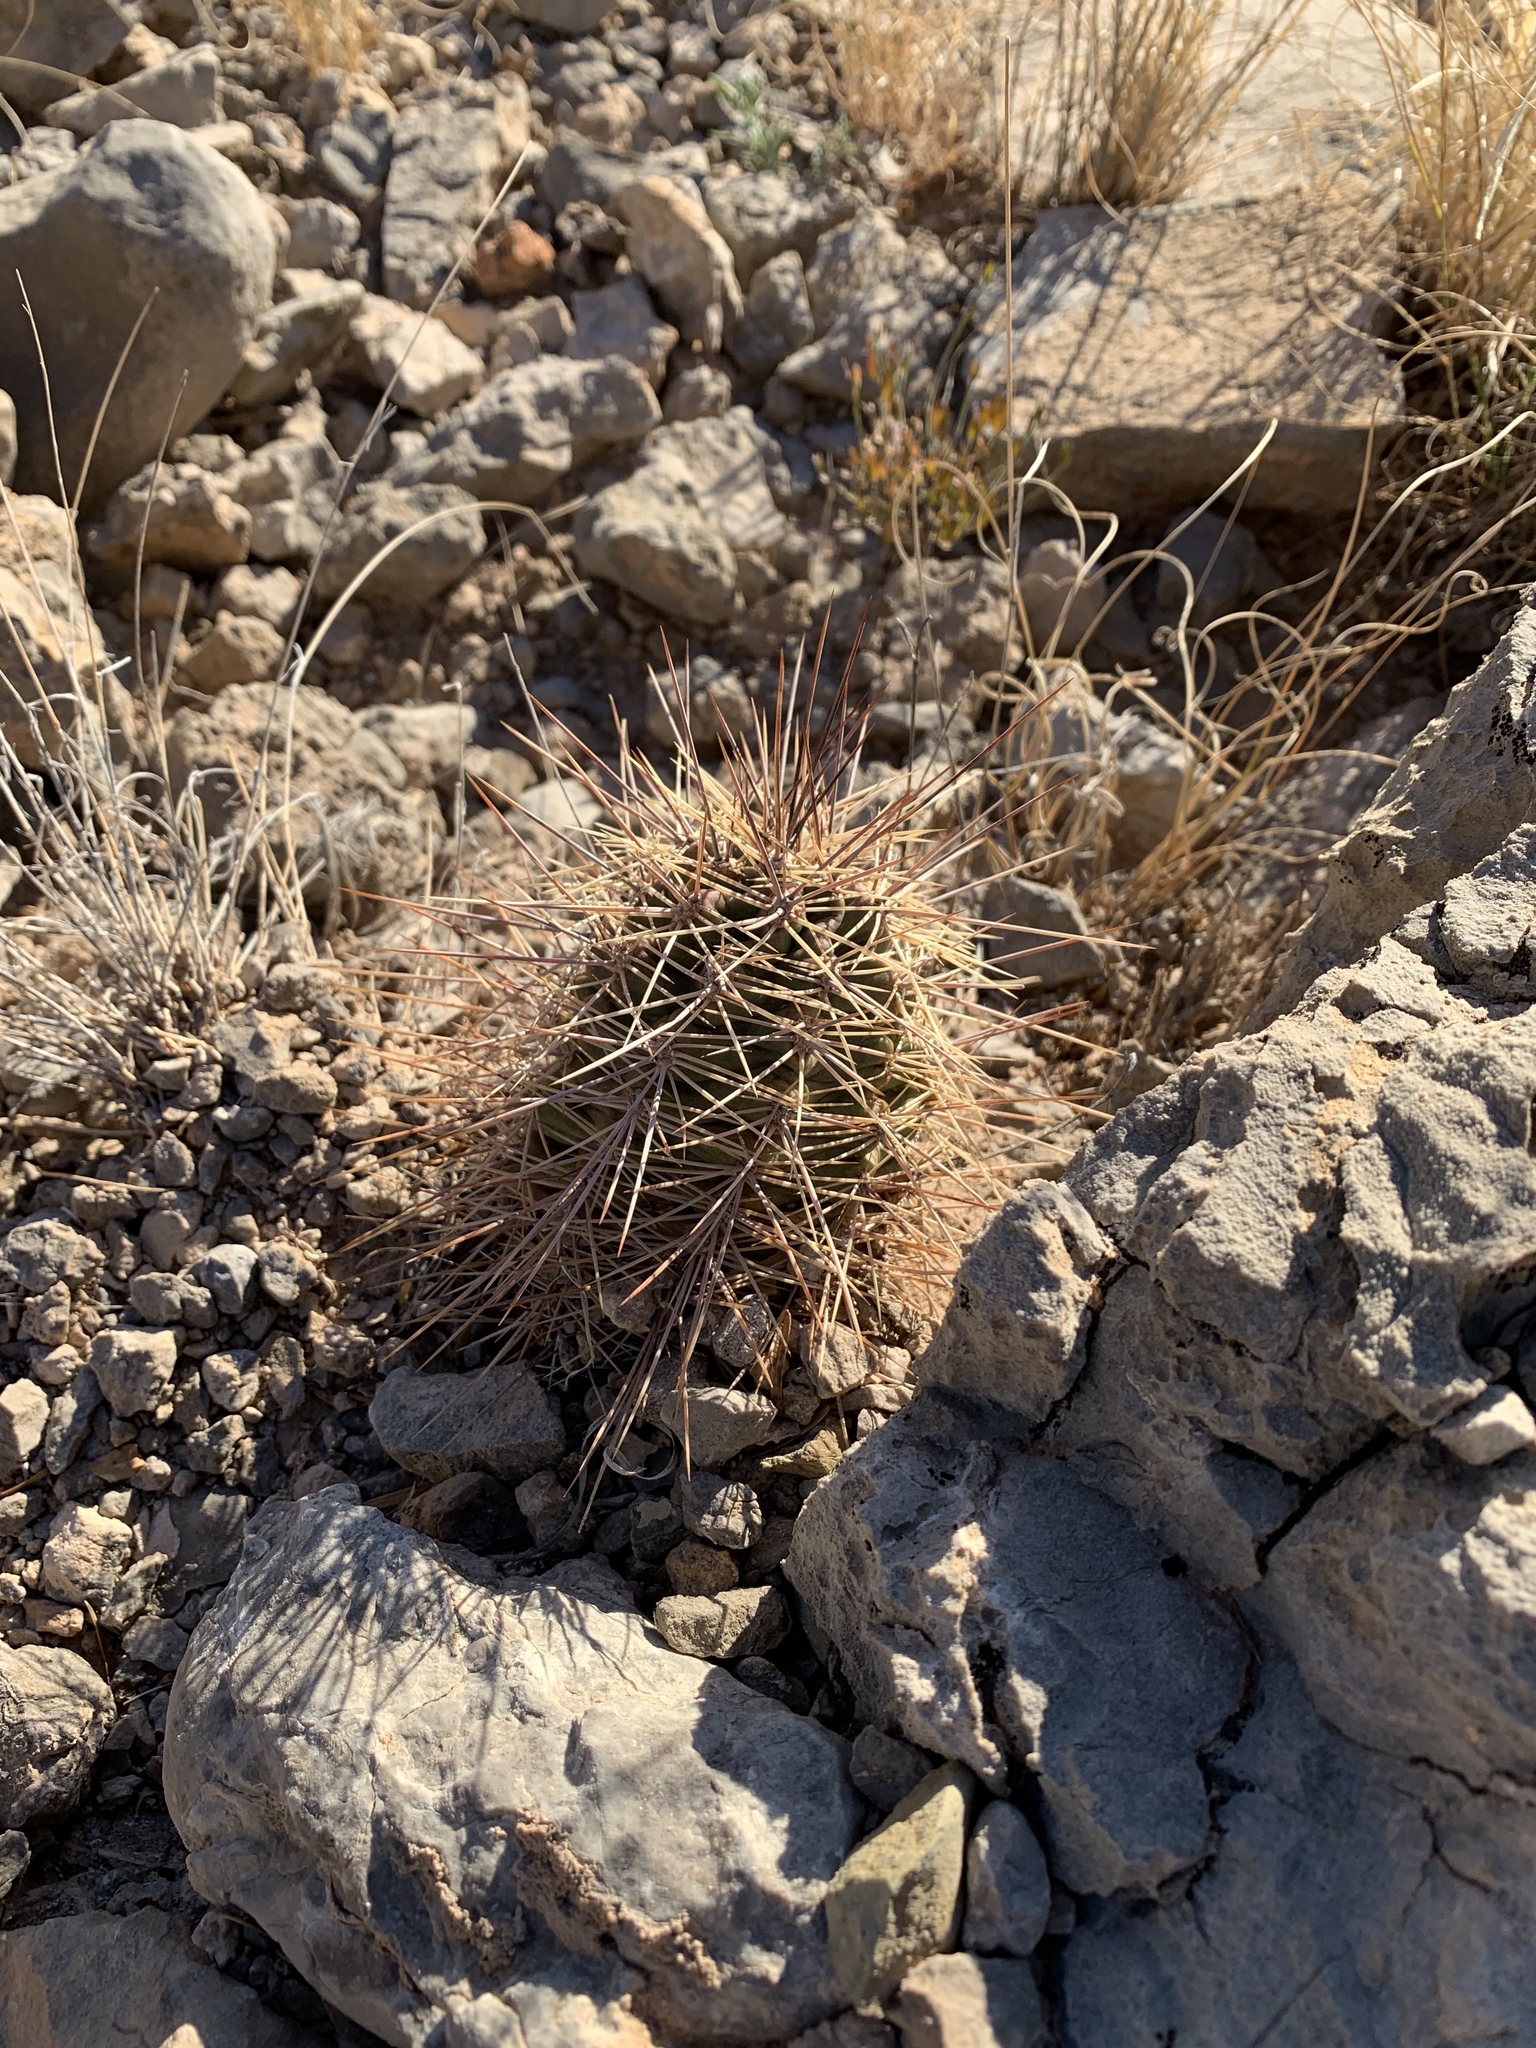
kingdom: Plantae
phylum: Tracheophyta
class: Magnoliopsida
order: Caryophyllales
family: Cactaceae
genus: Echinocereus
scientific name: Echinocereus coccineus
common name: Scarlet hedgehog cactus
